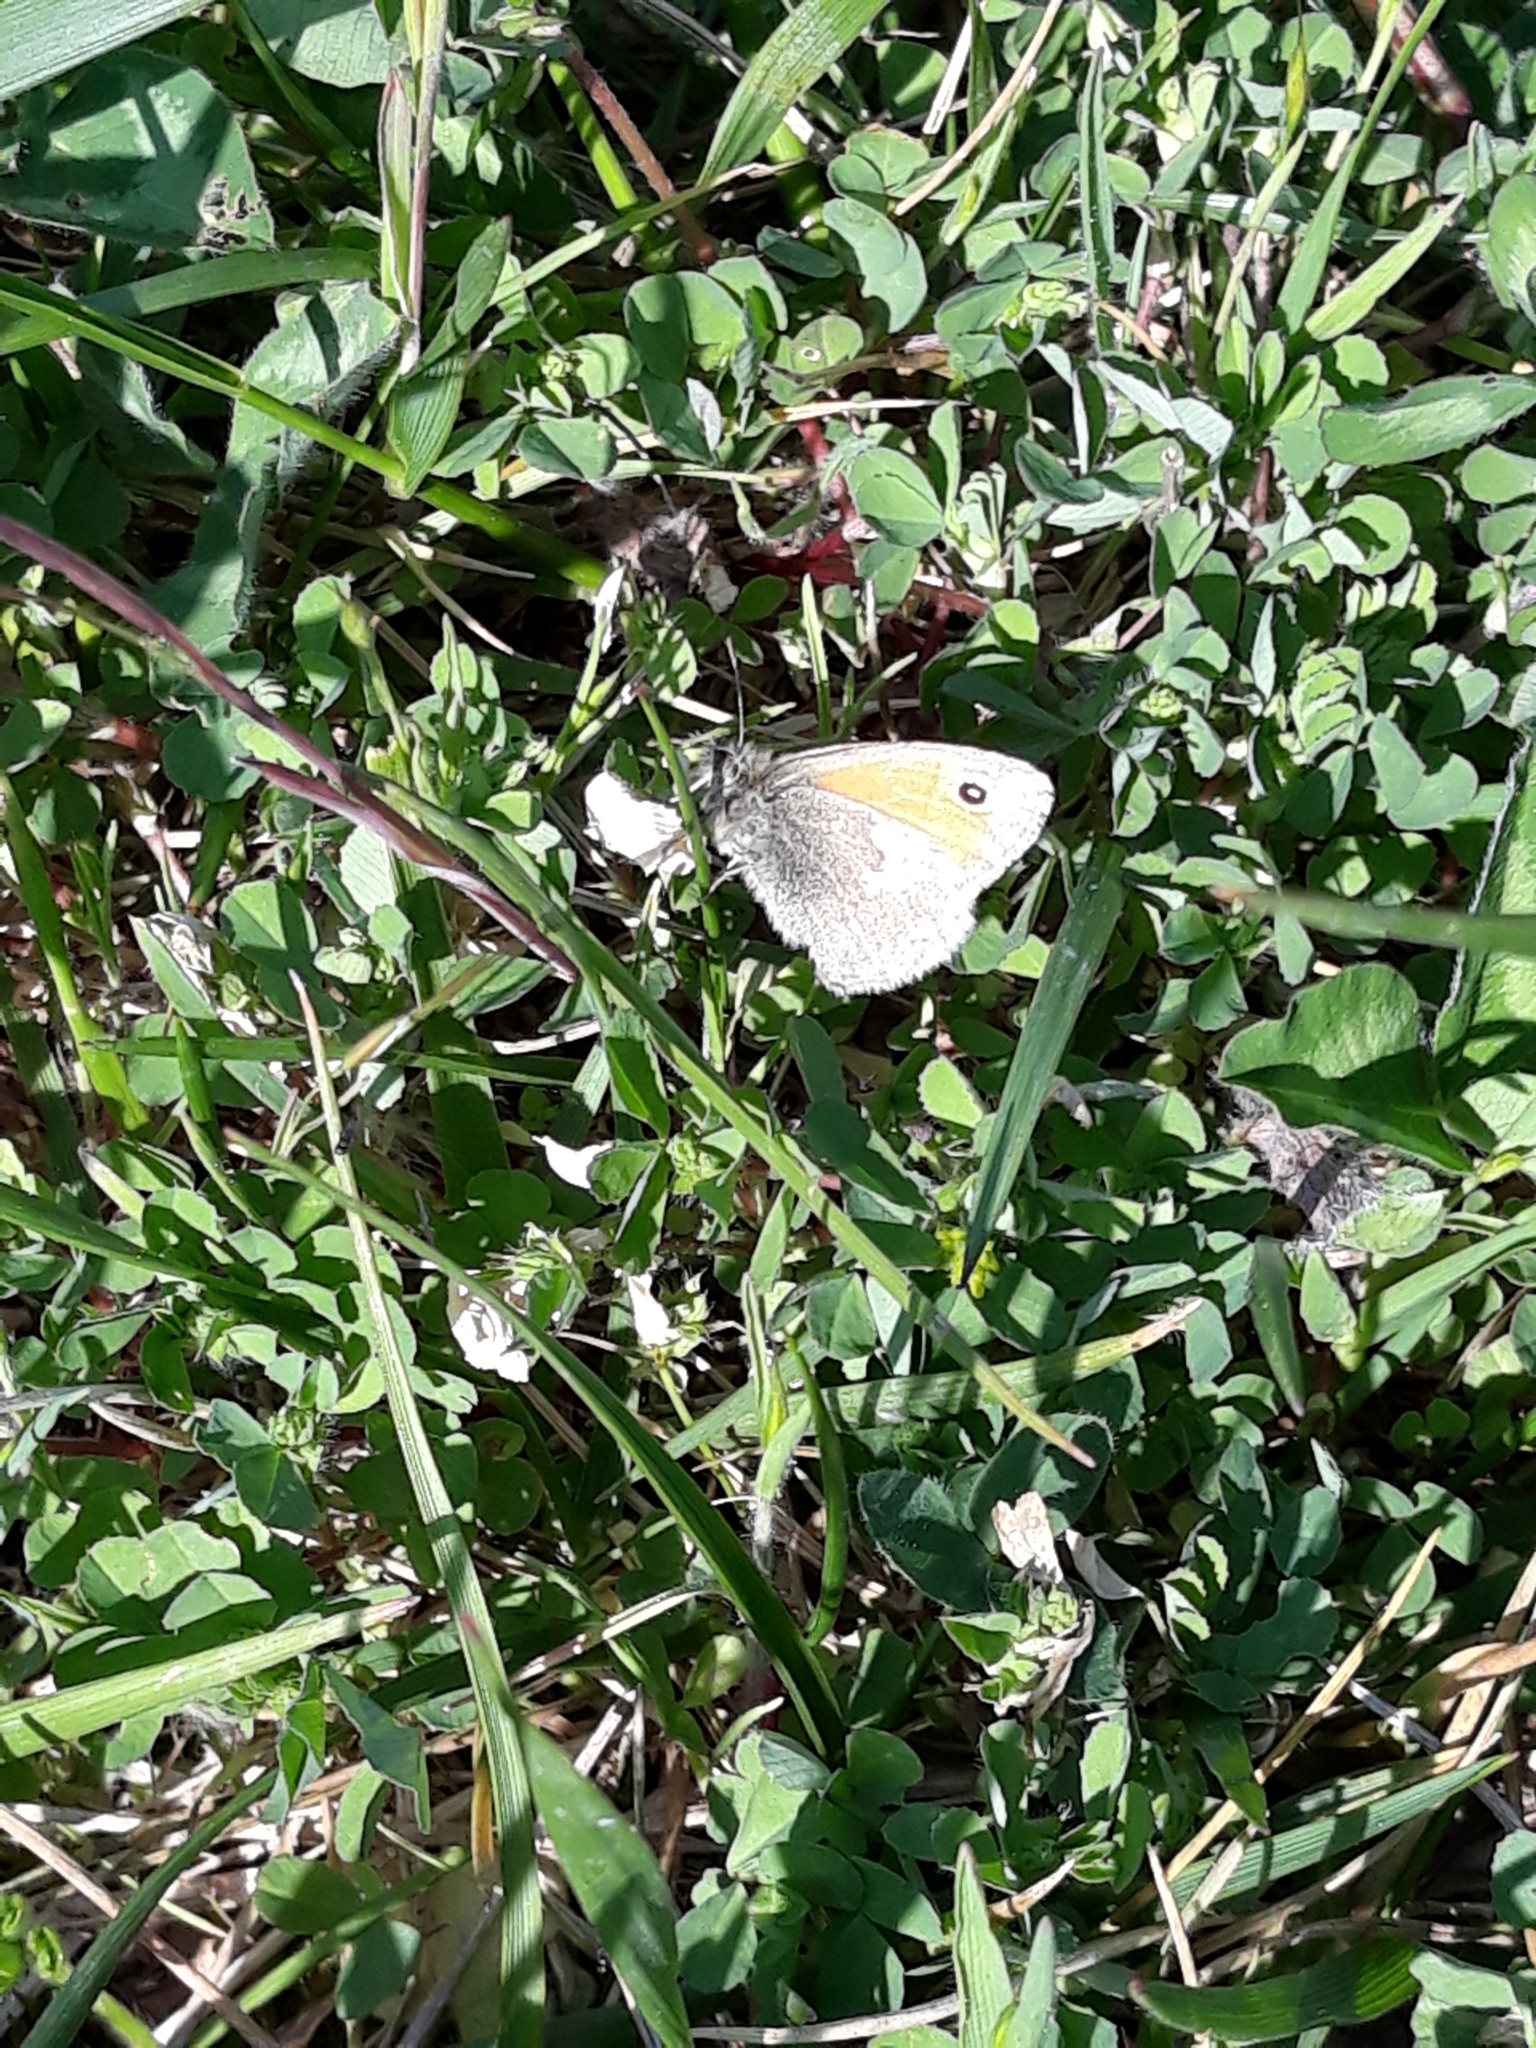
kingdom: Animalia
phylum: Arthropoda
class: Insecta
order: Lepidoptera
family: Nymphalidae
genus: Coenonympha
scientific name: Coenonympha pamphilus
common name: Small heath
